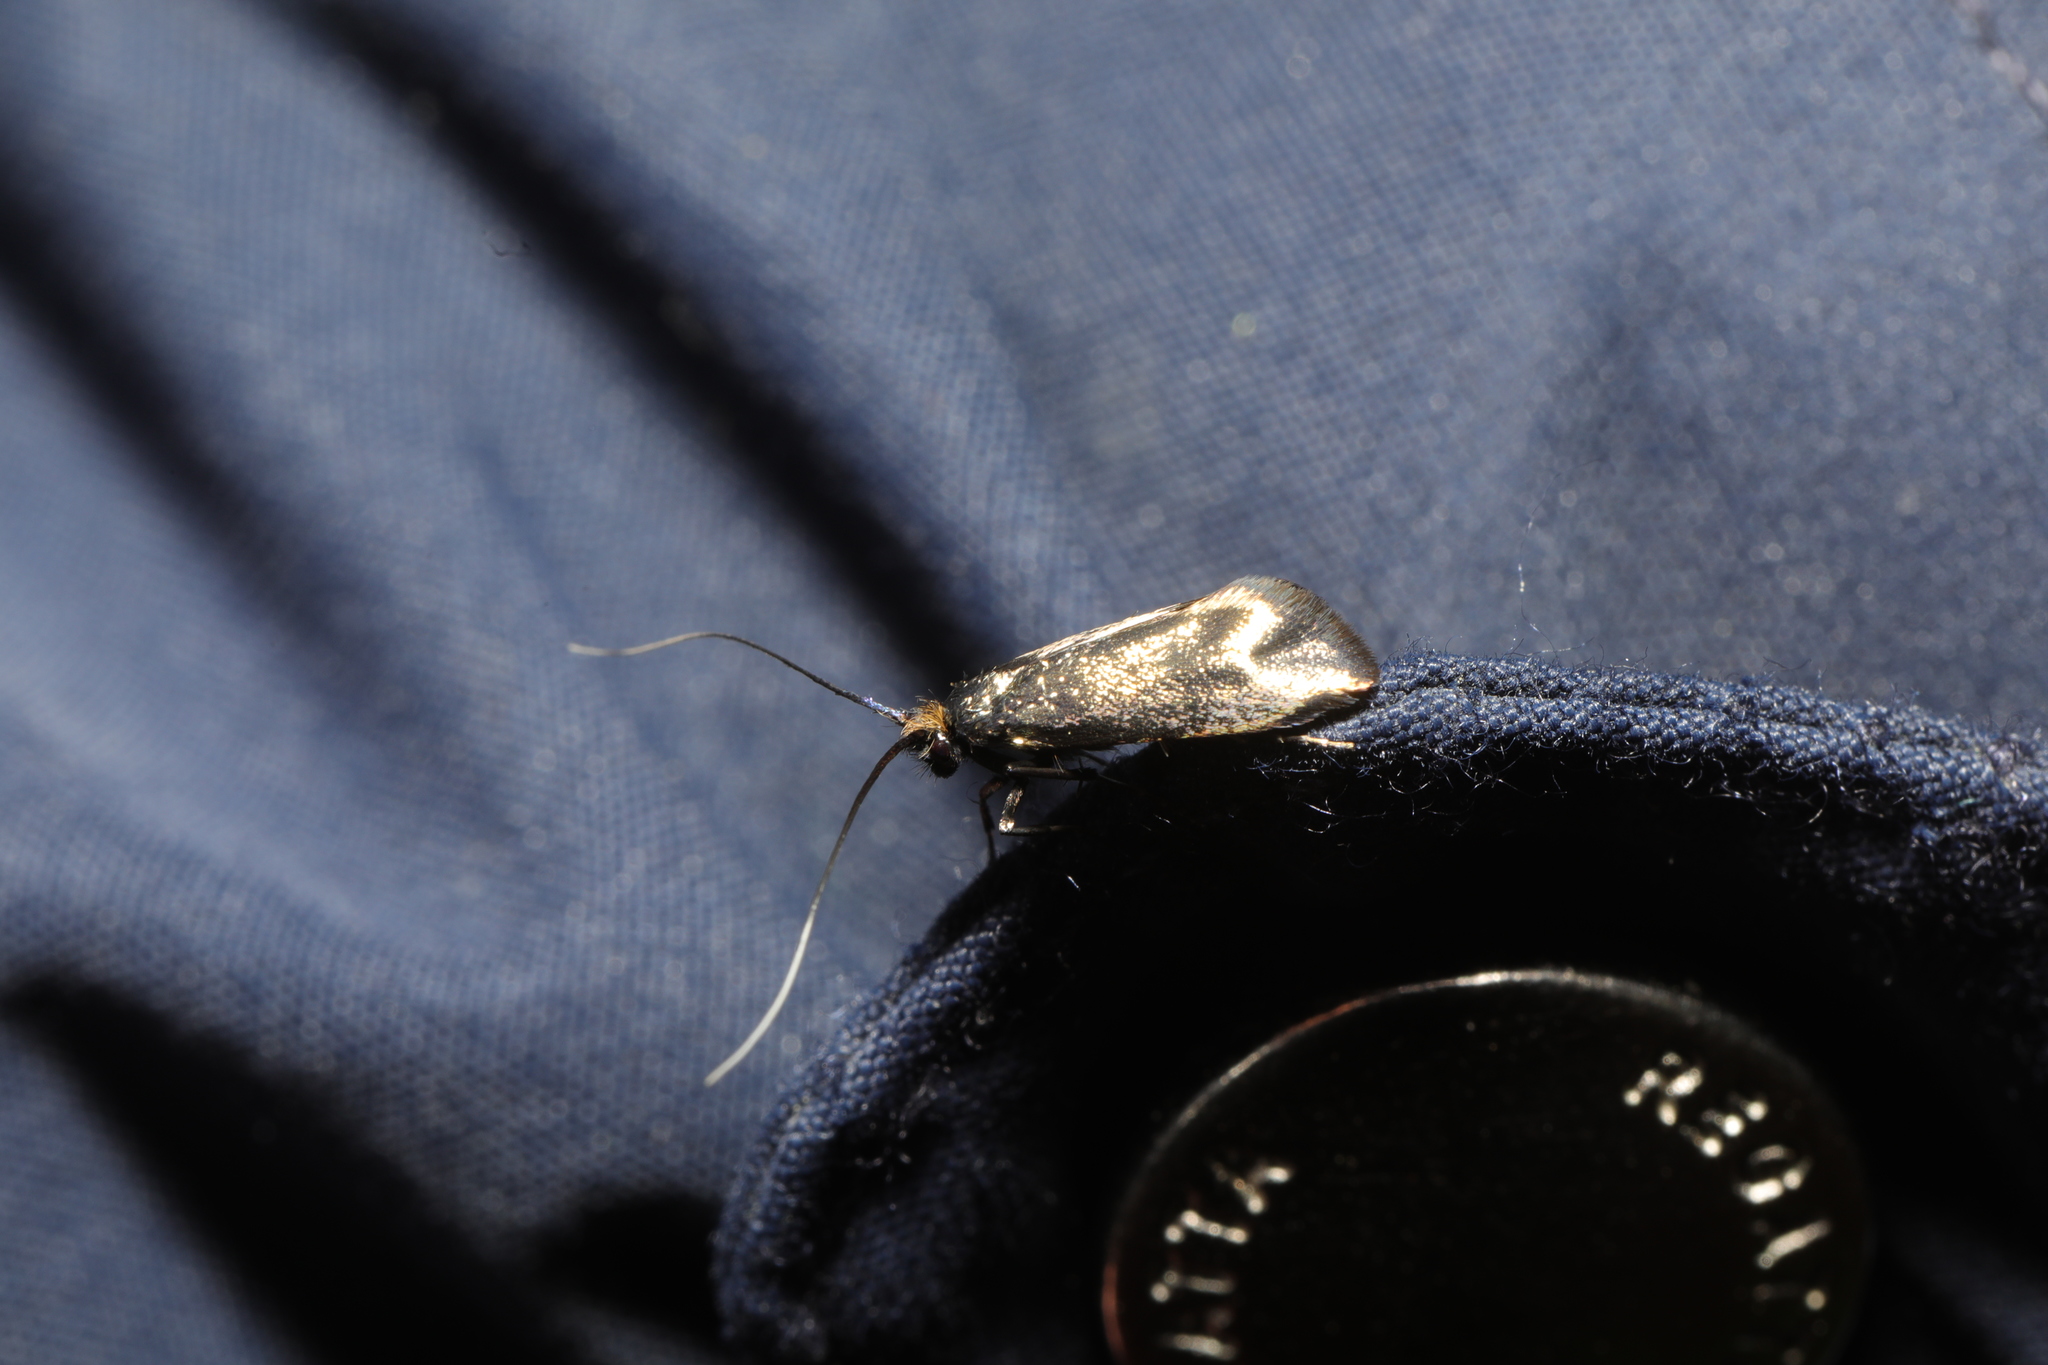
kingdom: Animalia
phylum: Arthropoda
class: Insecta
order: Lepidoptera
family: Adelidae
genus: Adela
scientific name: Adela viridella
